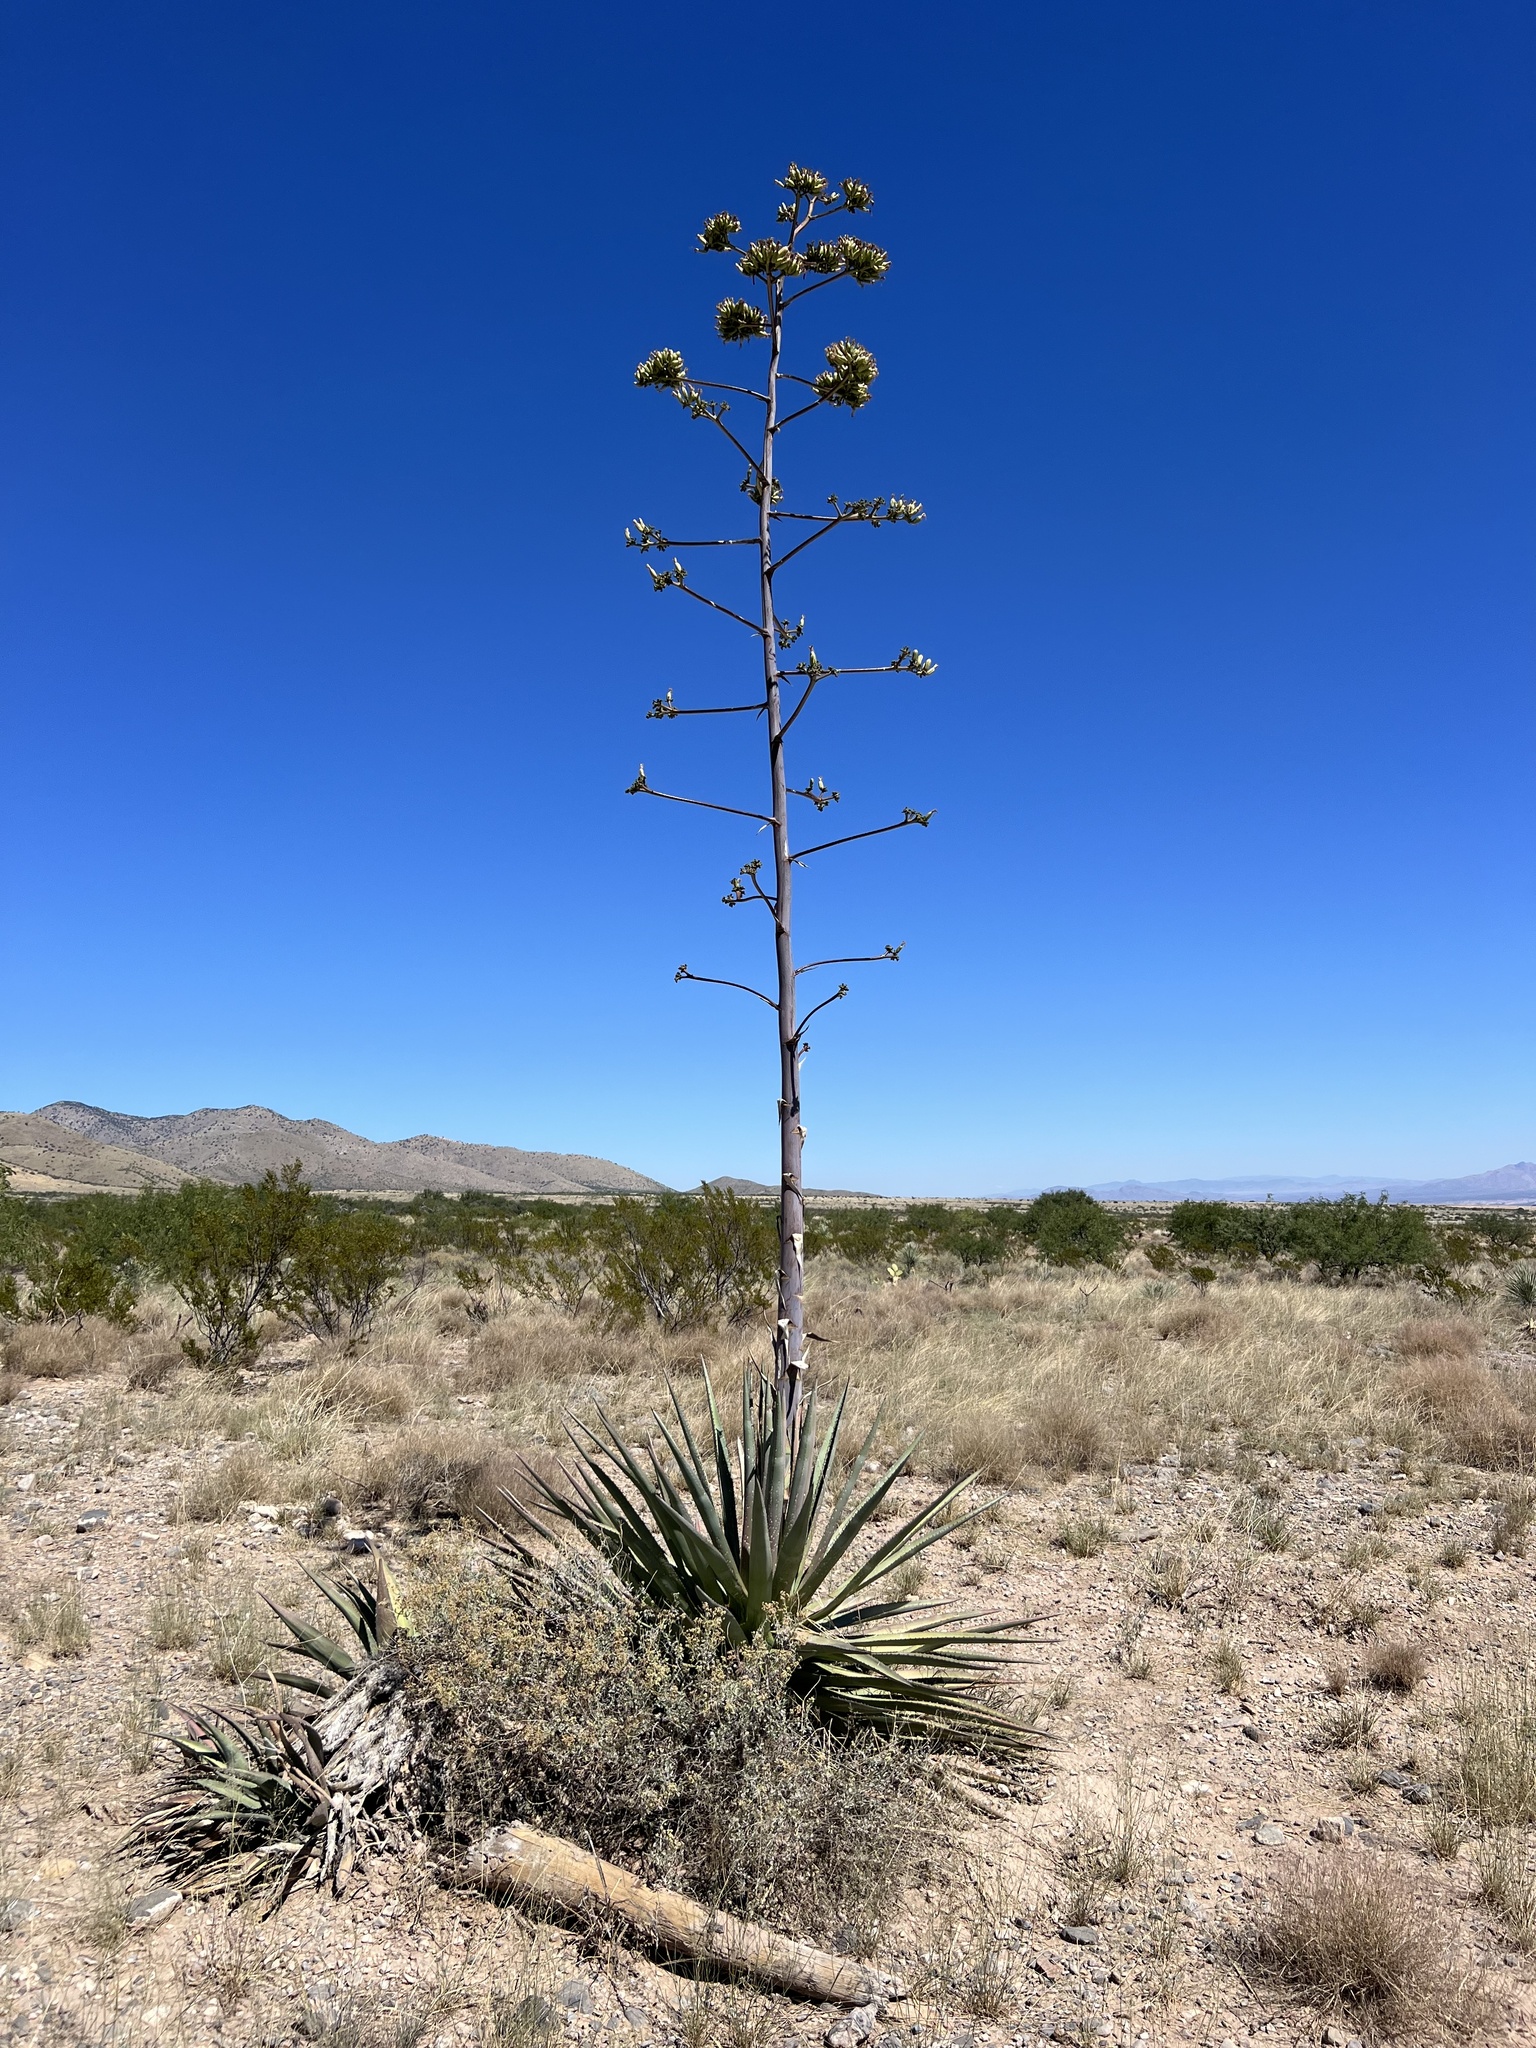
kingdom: Plantae
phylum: Tracheophyta
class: Liliopsida
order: Asparagales
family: Asparagaceae
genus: Agave
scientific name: Agave palmeri
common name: Palmer agave
